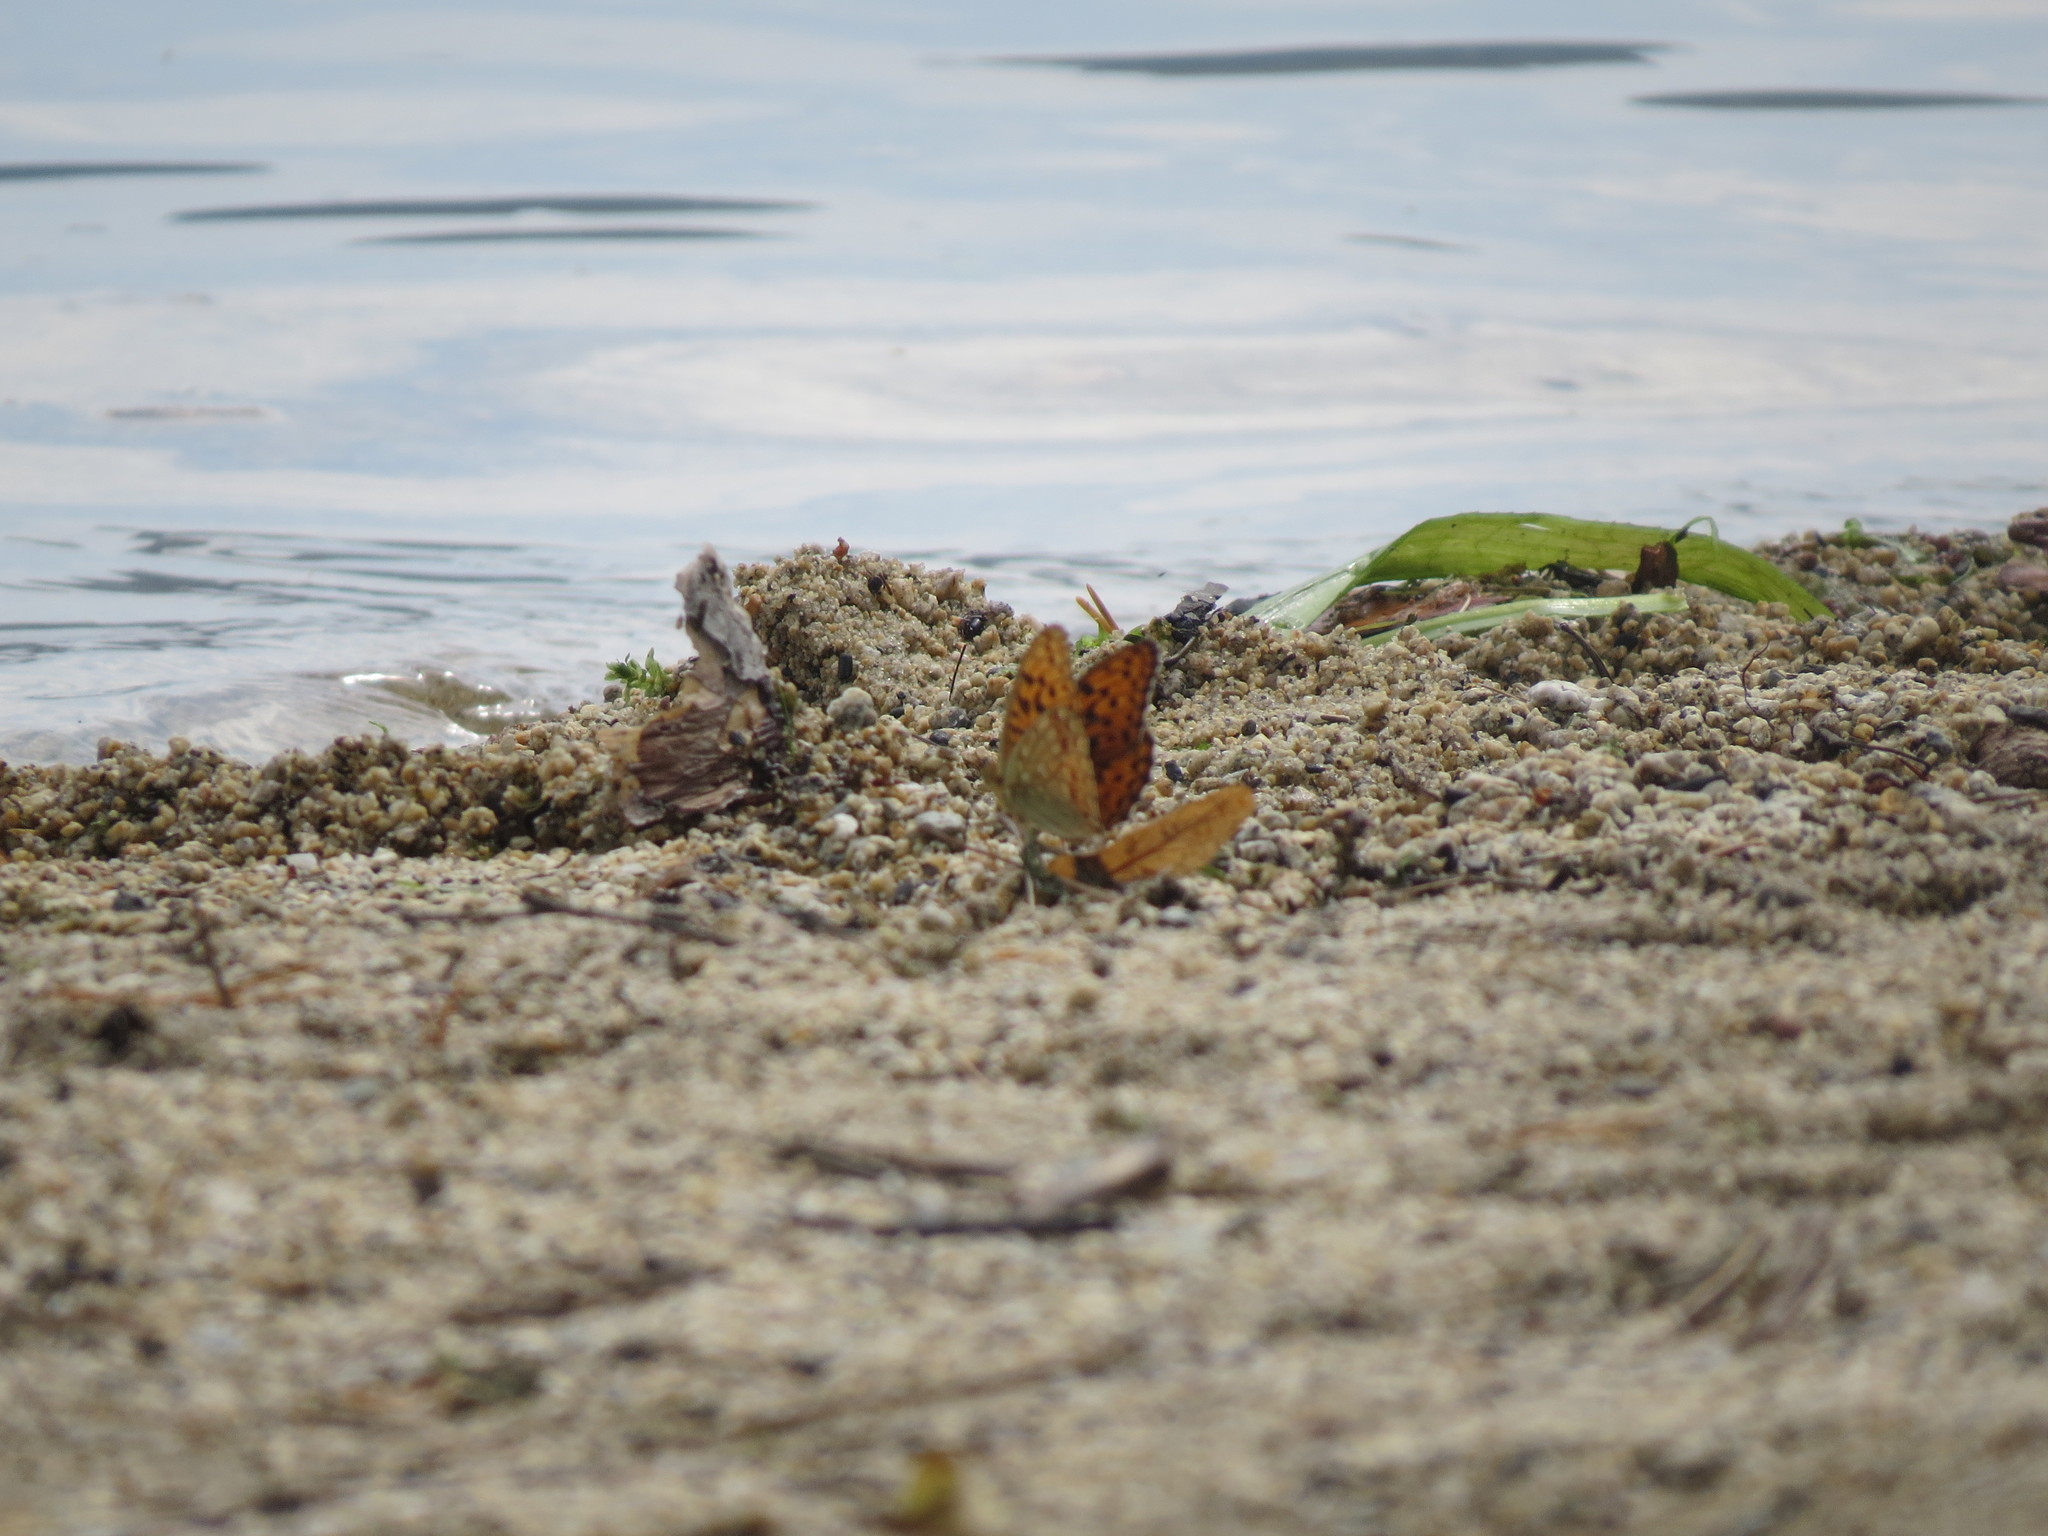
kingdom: Animalia
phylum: Arthropoda
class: Insecta
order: Lepidoptera
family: Nymphalidae
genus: Fabriciana
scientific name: Fabriciana adippe
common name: High brown fritillary
